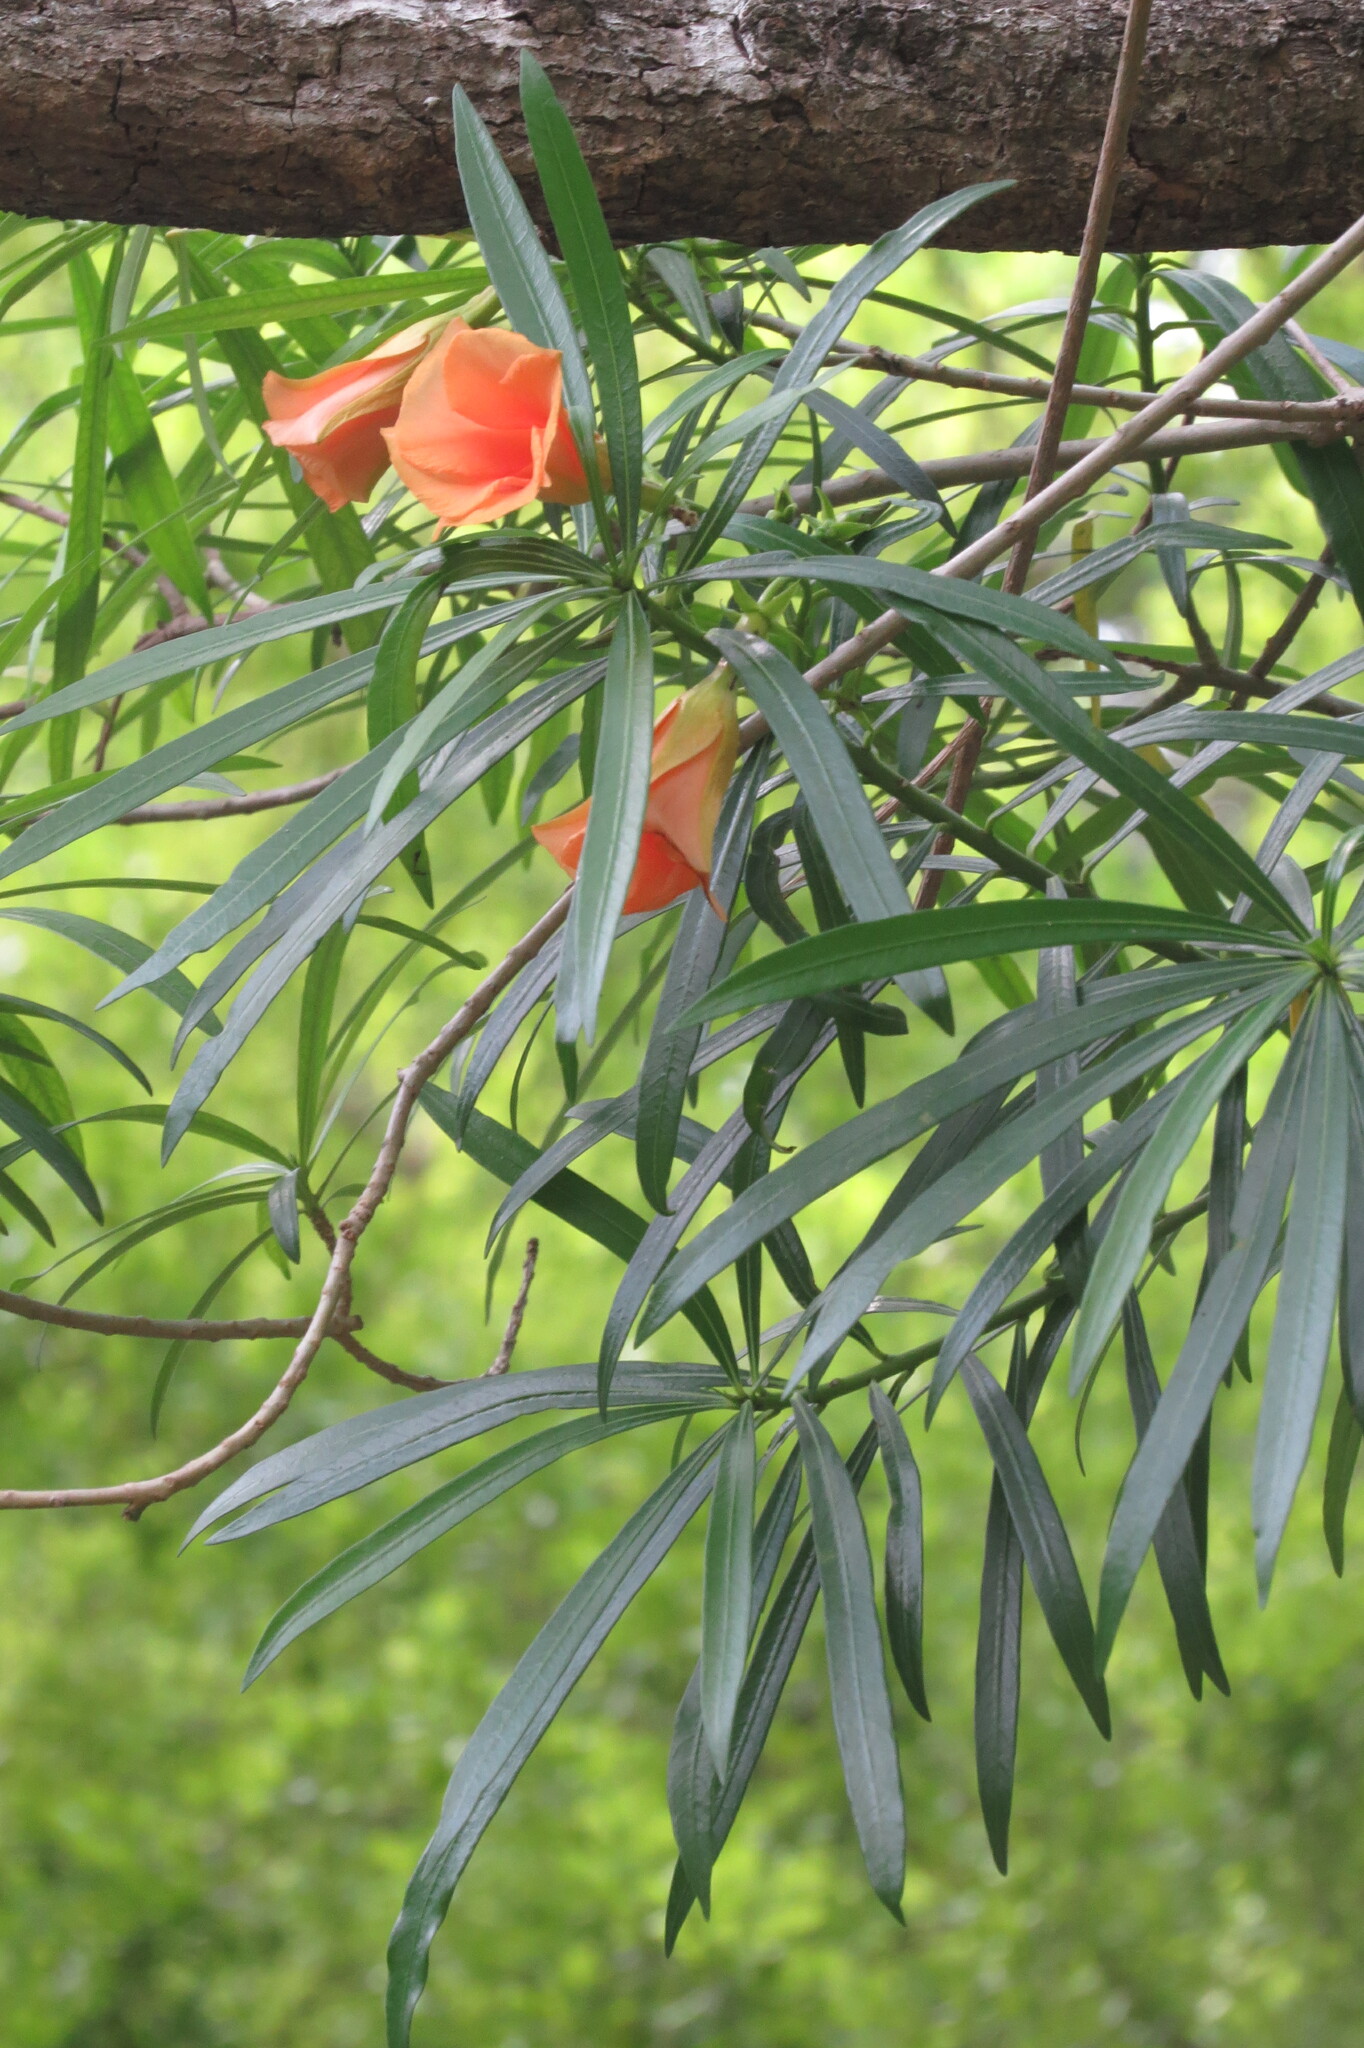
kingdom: Plantae
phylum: Tracheophyta
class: Magnoliopsida
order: Gentianales
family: Apocynaceae
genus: Cascabela
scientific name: Cascabela thevetia
